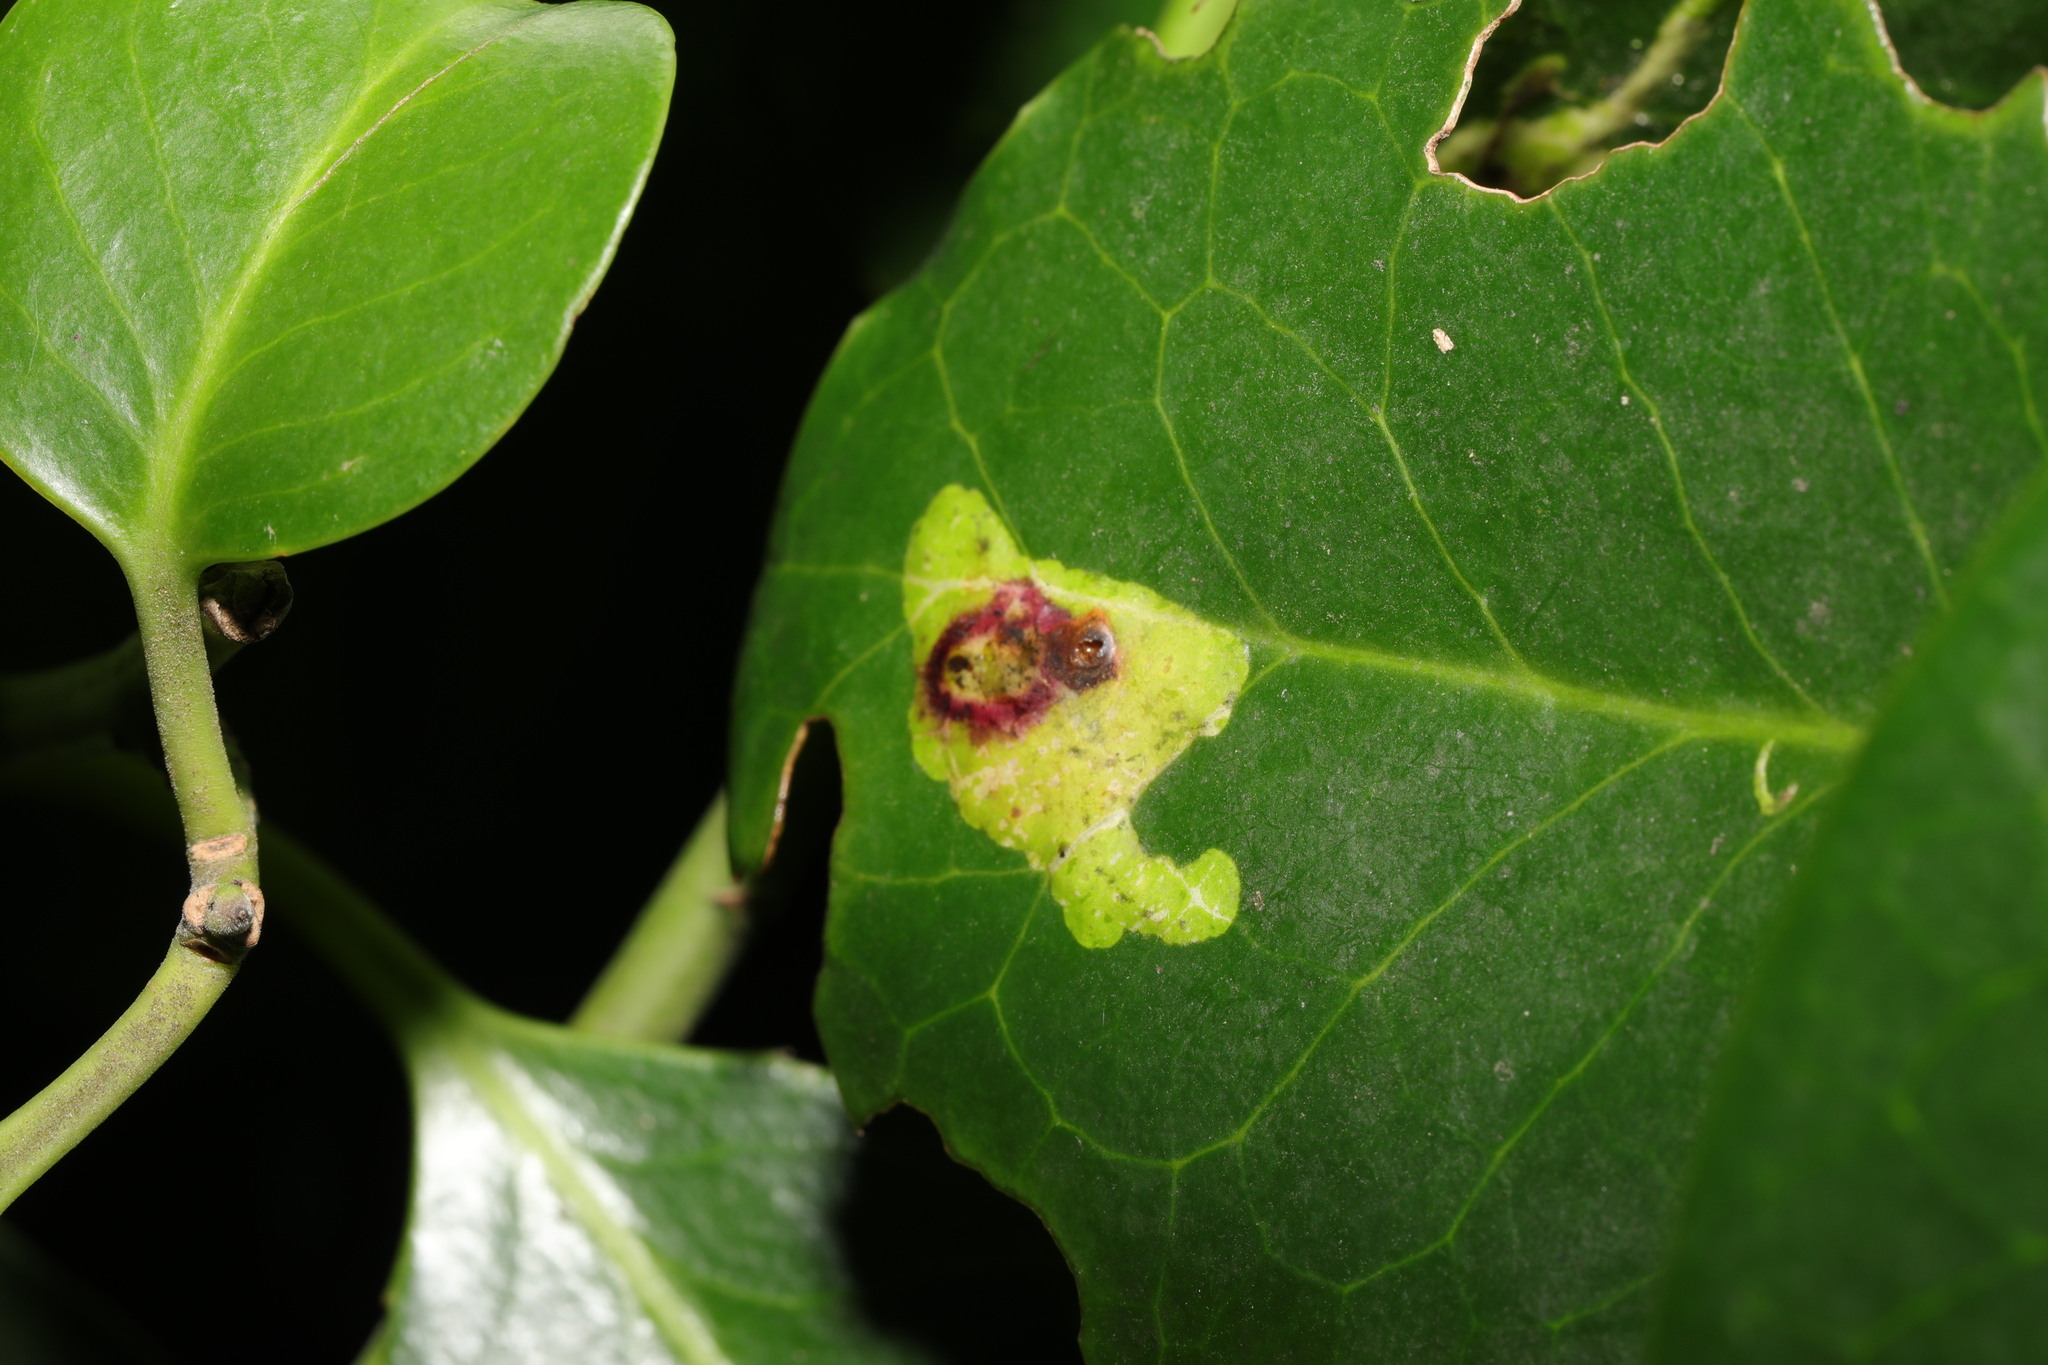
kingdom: Animalia
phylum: Arthropoda
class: Insecta
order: Diptera
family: Agromyzidae
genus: Phytomyza
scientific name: Phytomyza ilicis
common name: Holly leafminer
